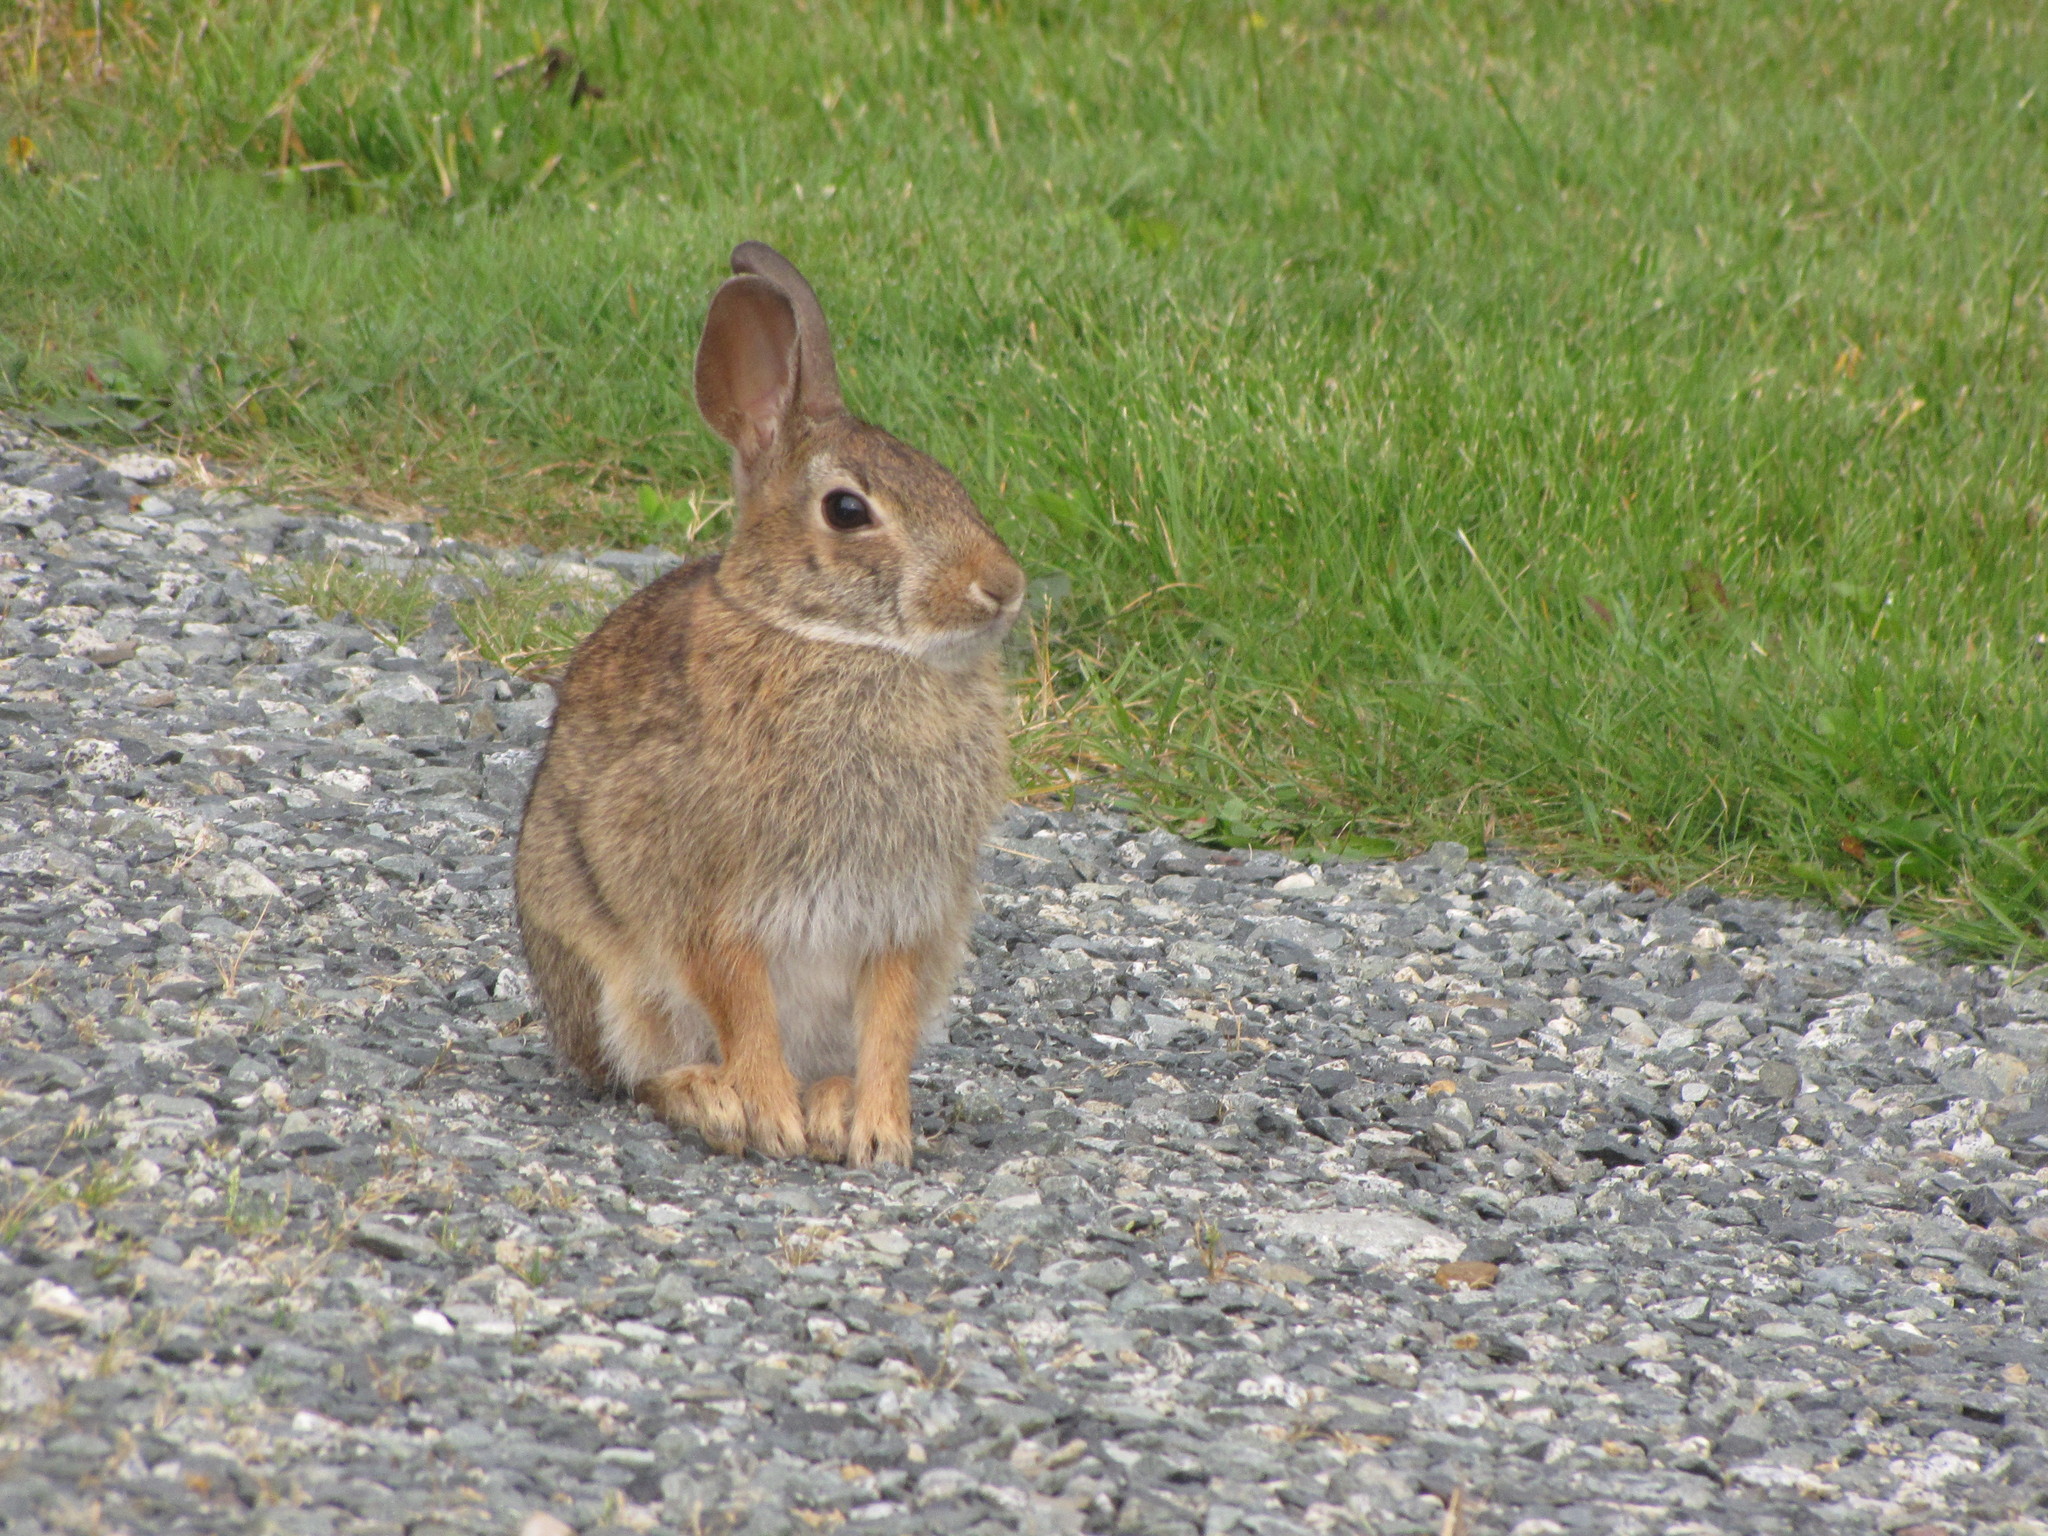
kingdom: Animalia
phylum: Chordata
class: Mammalia
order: Lagomorpha
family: Leporidae
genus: Sylvilagus
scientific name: Sylvilagus floridanus
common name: Eastern cottontail
